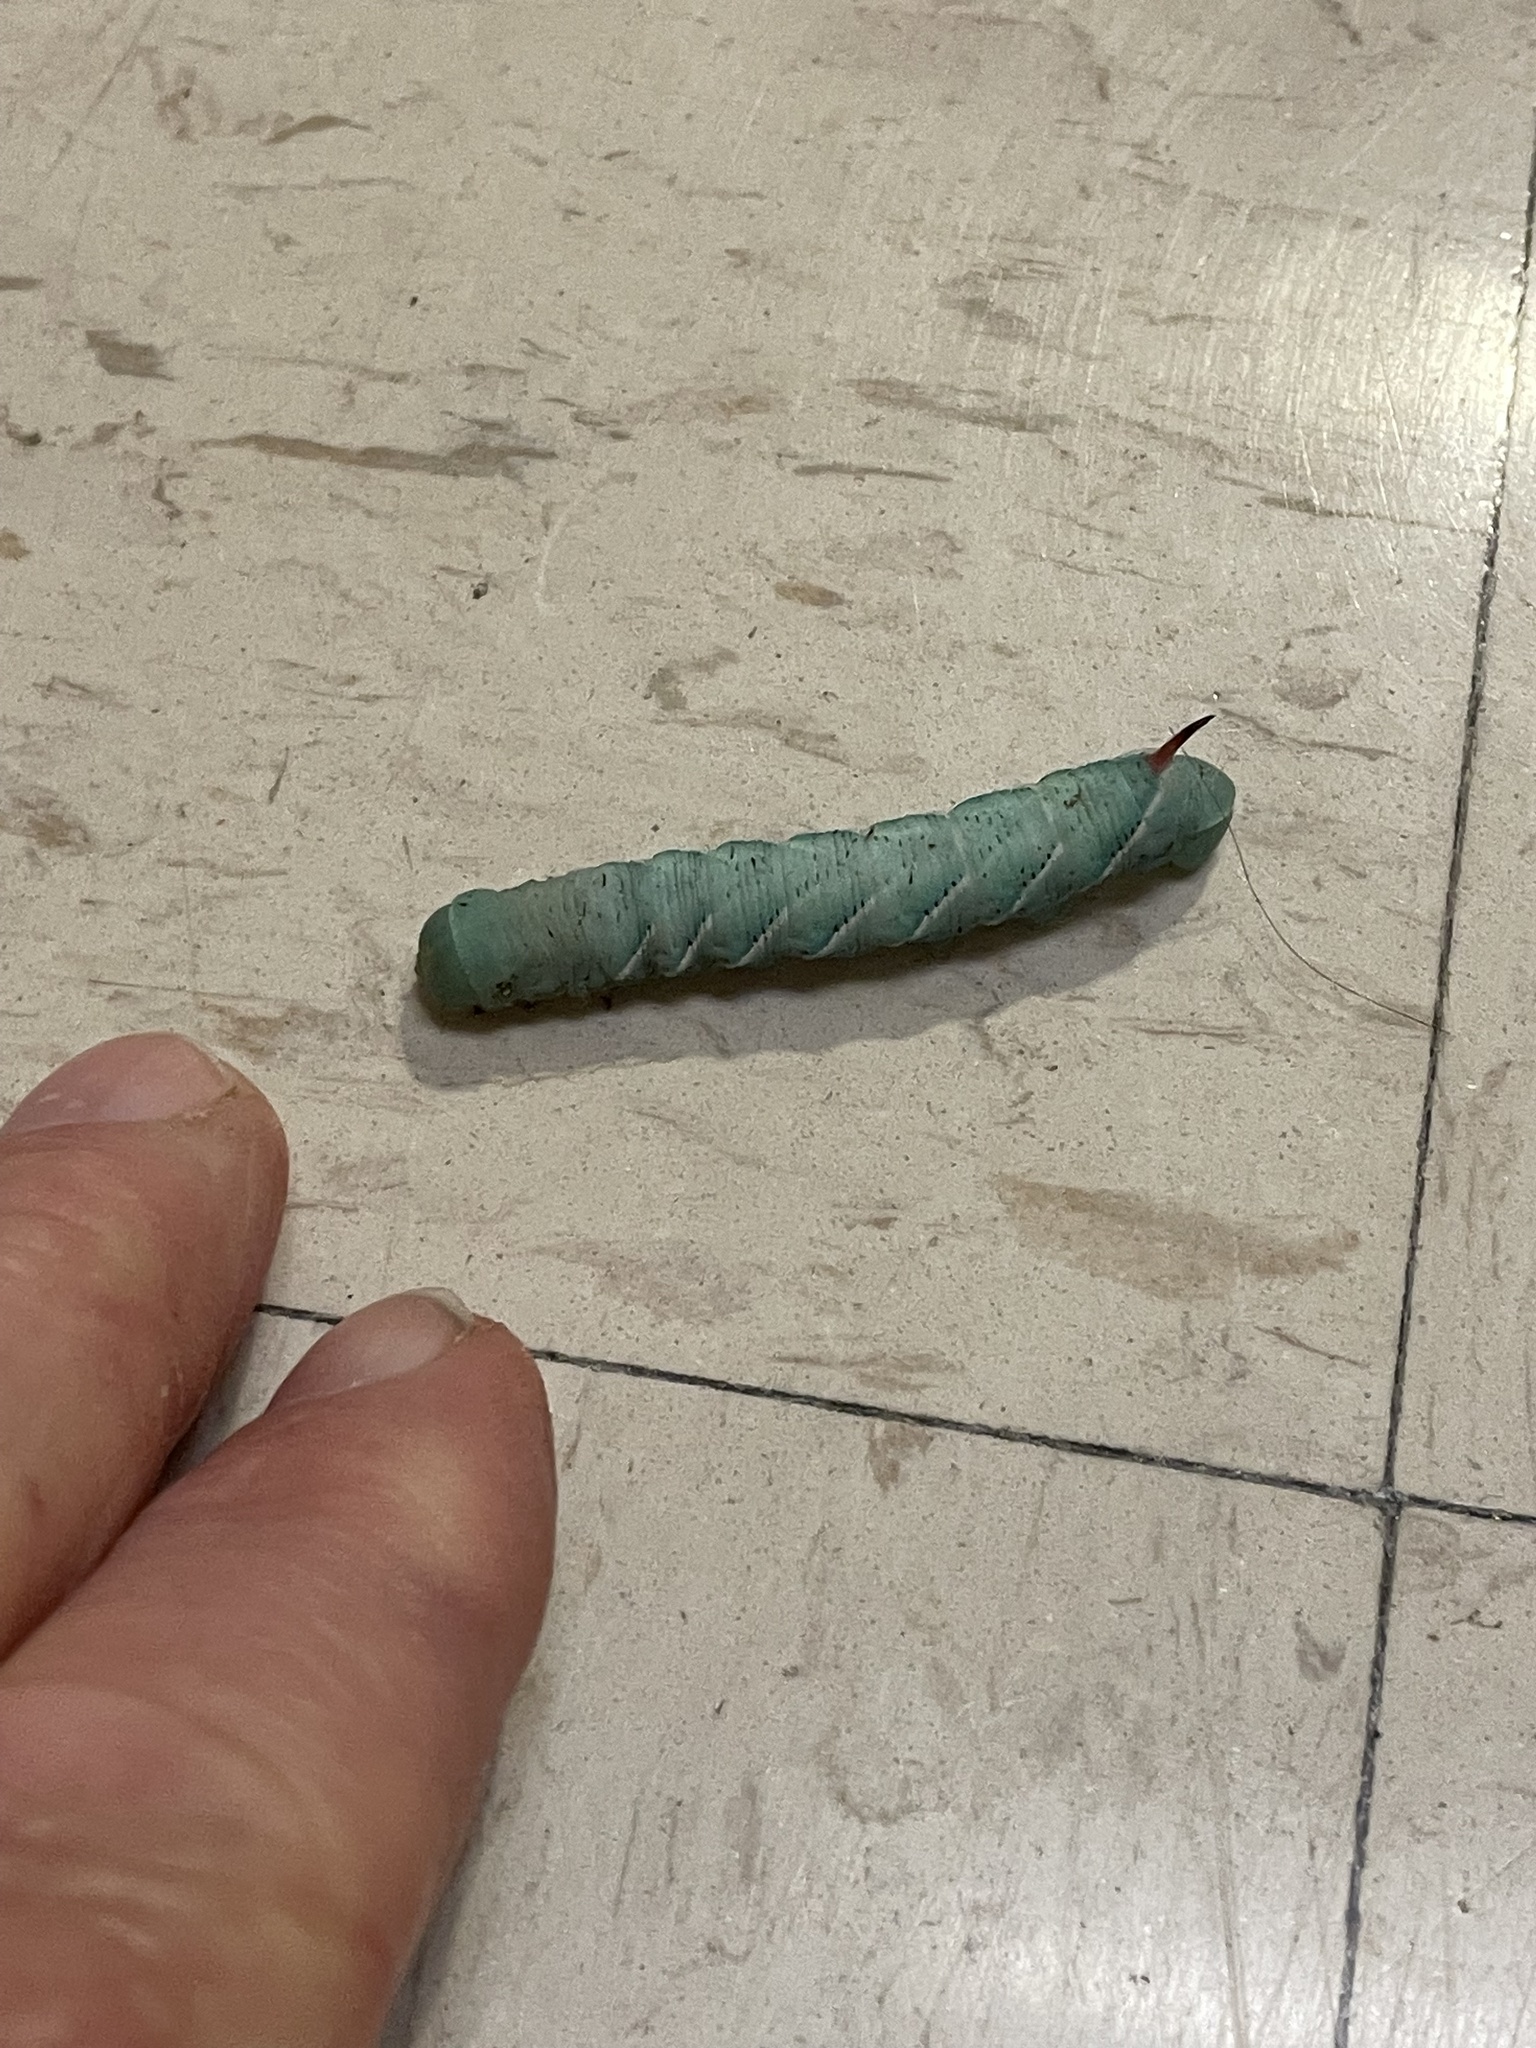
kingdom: Animalia
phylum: Arthropoda
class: Insecta
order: Lepidoptera
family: Sphingidae
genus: Manduca
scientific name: Manduca sexta
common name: Carolina sphinx
